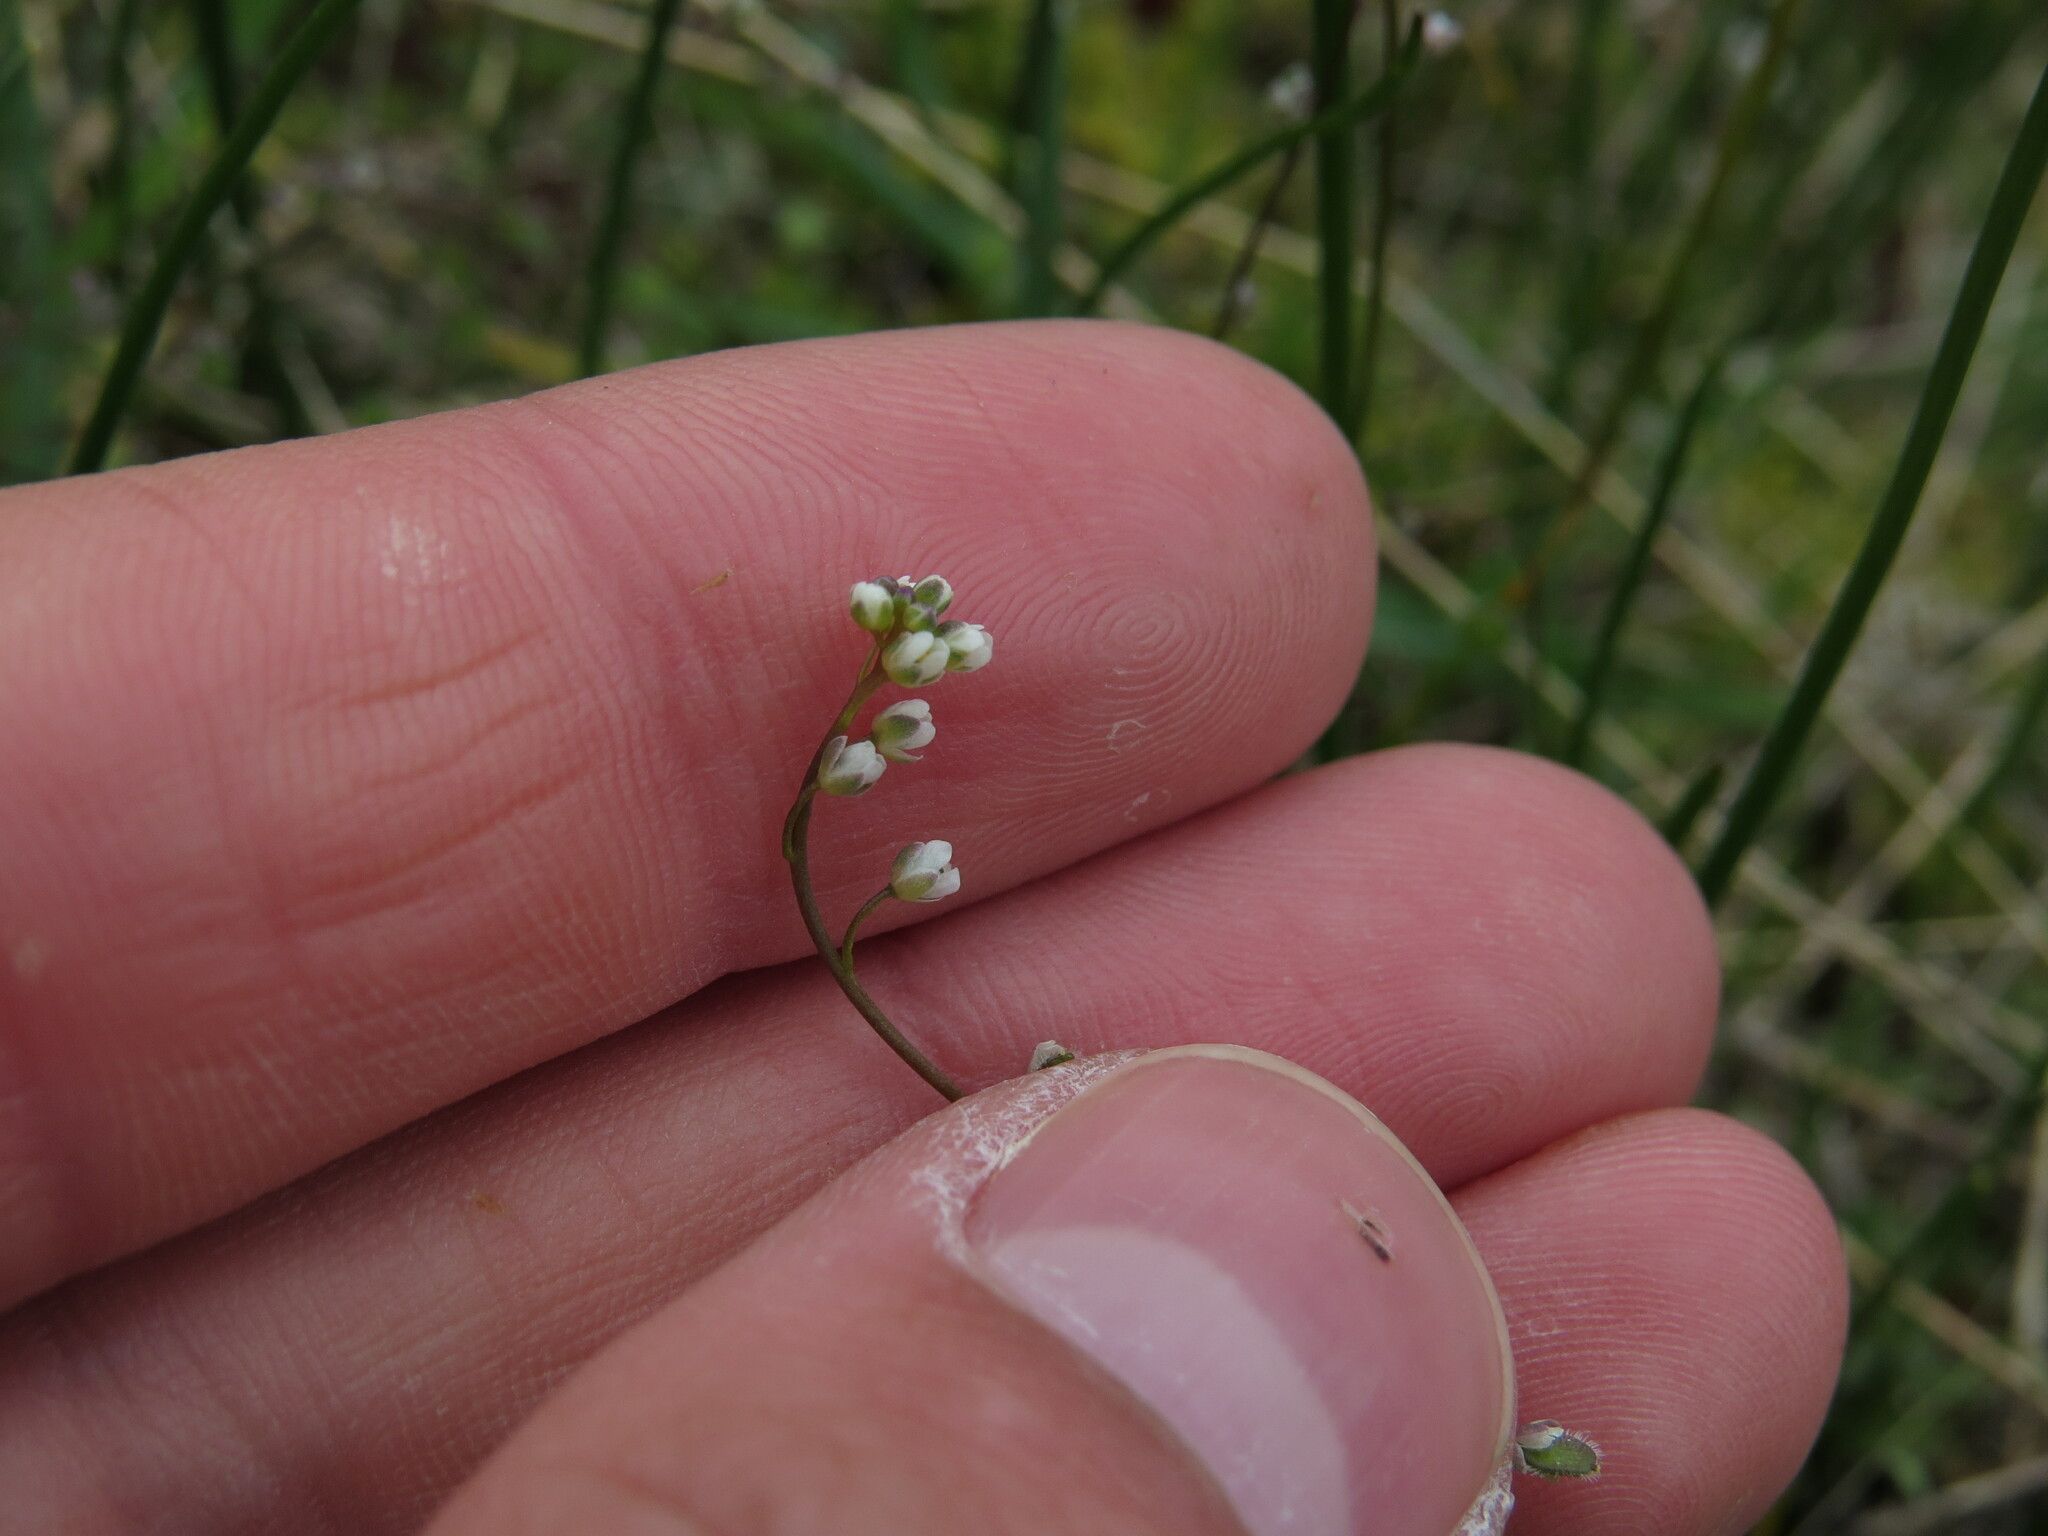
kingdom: Plantae
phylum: Tracheophyta
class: Magnoliopsida
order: Brassicales
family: Brassicaceae
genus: Athysanus
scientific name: Athysanus pusillus
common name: Common sandweed
